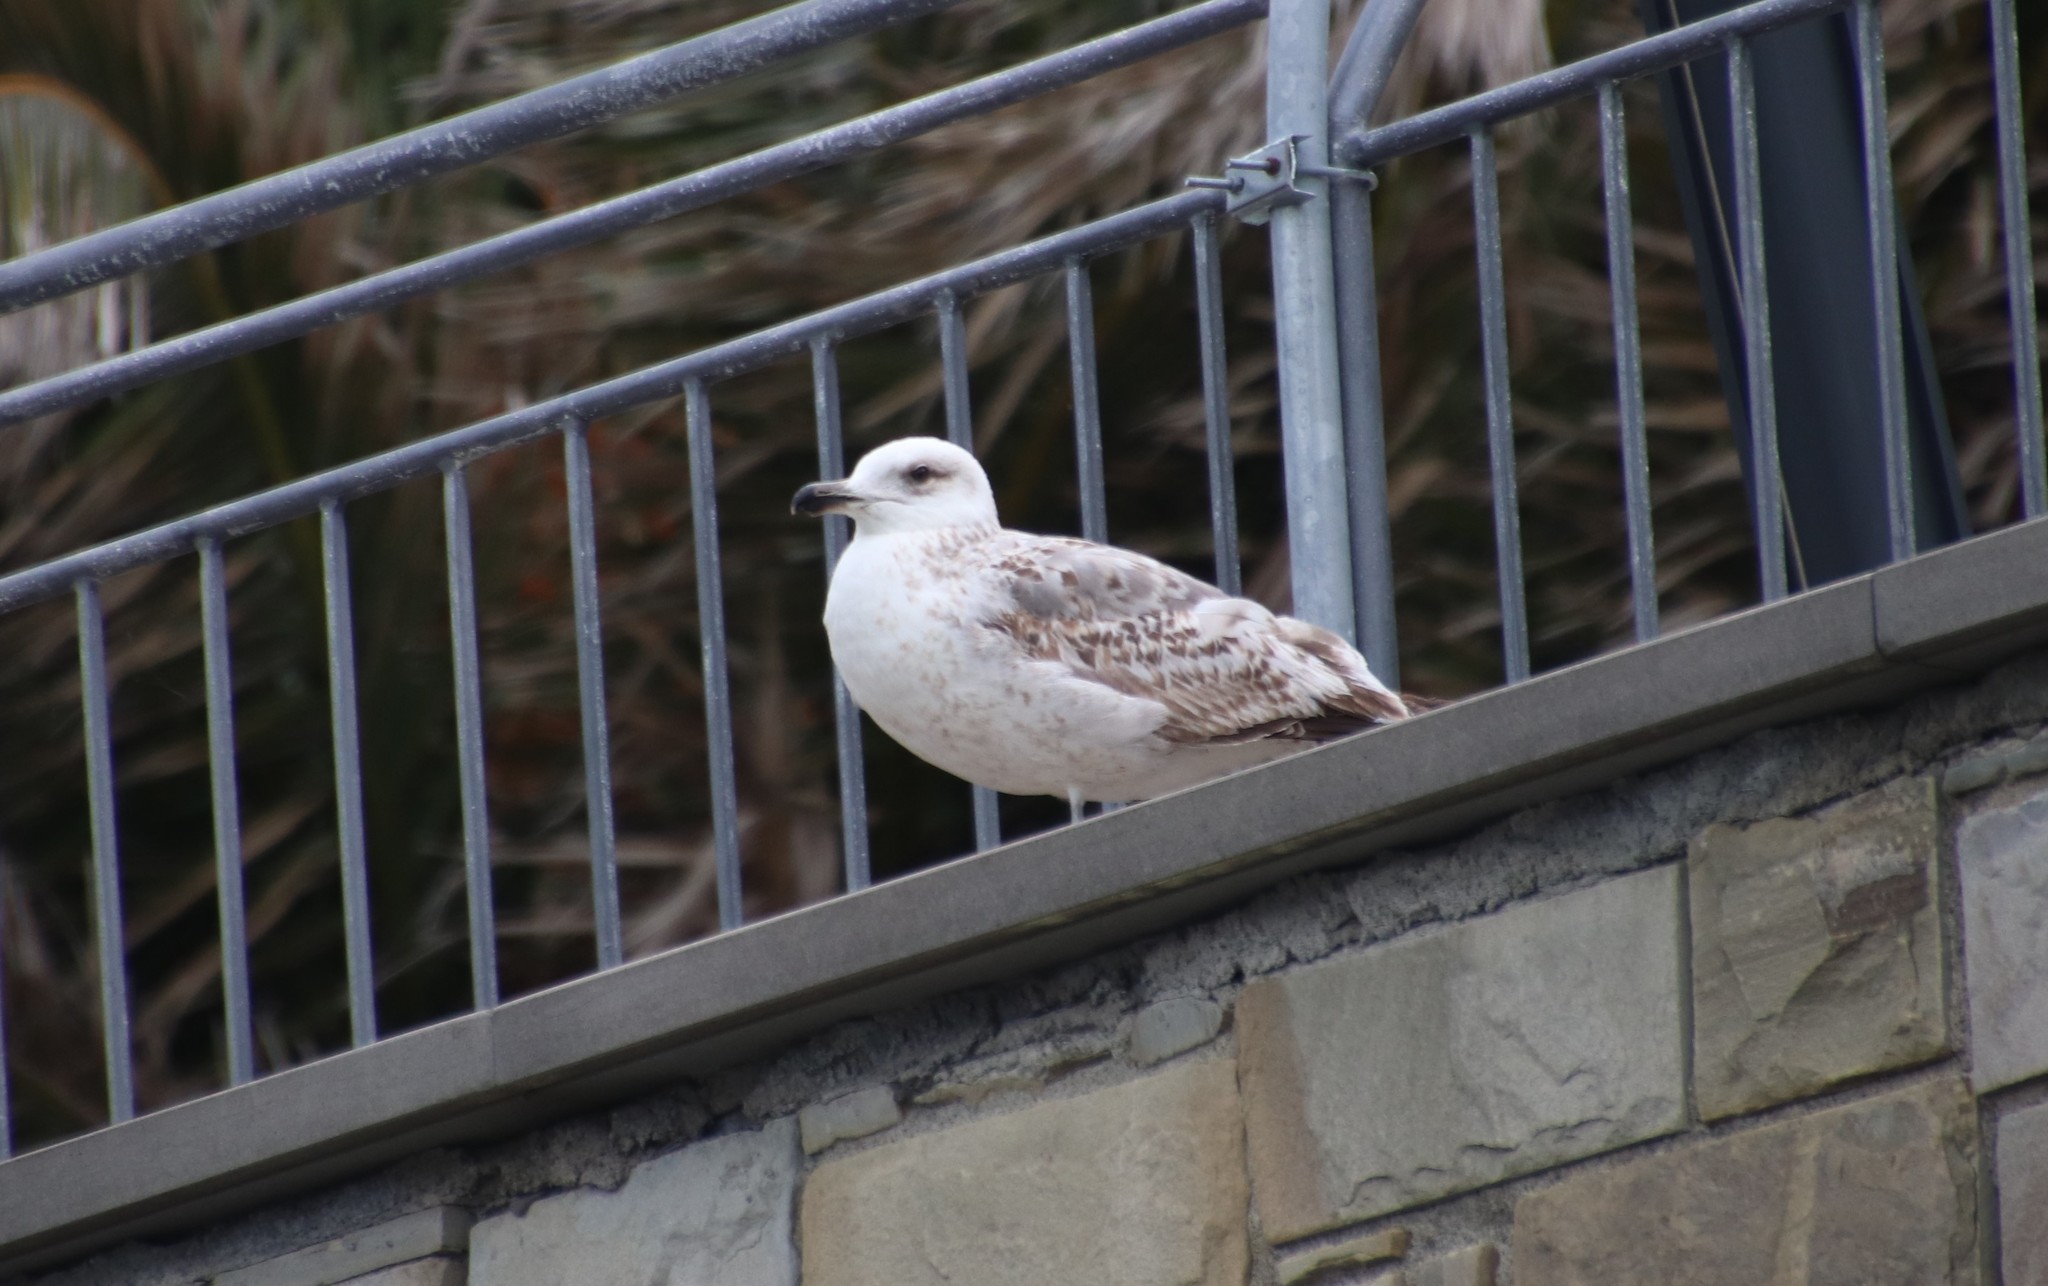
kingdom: Animalia
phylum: Chordata
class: Aves
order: Charadriiformes
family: Laridae
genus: Larus
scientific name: Larus michahellis
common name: Yellow-legged gull
